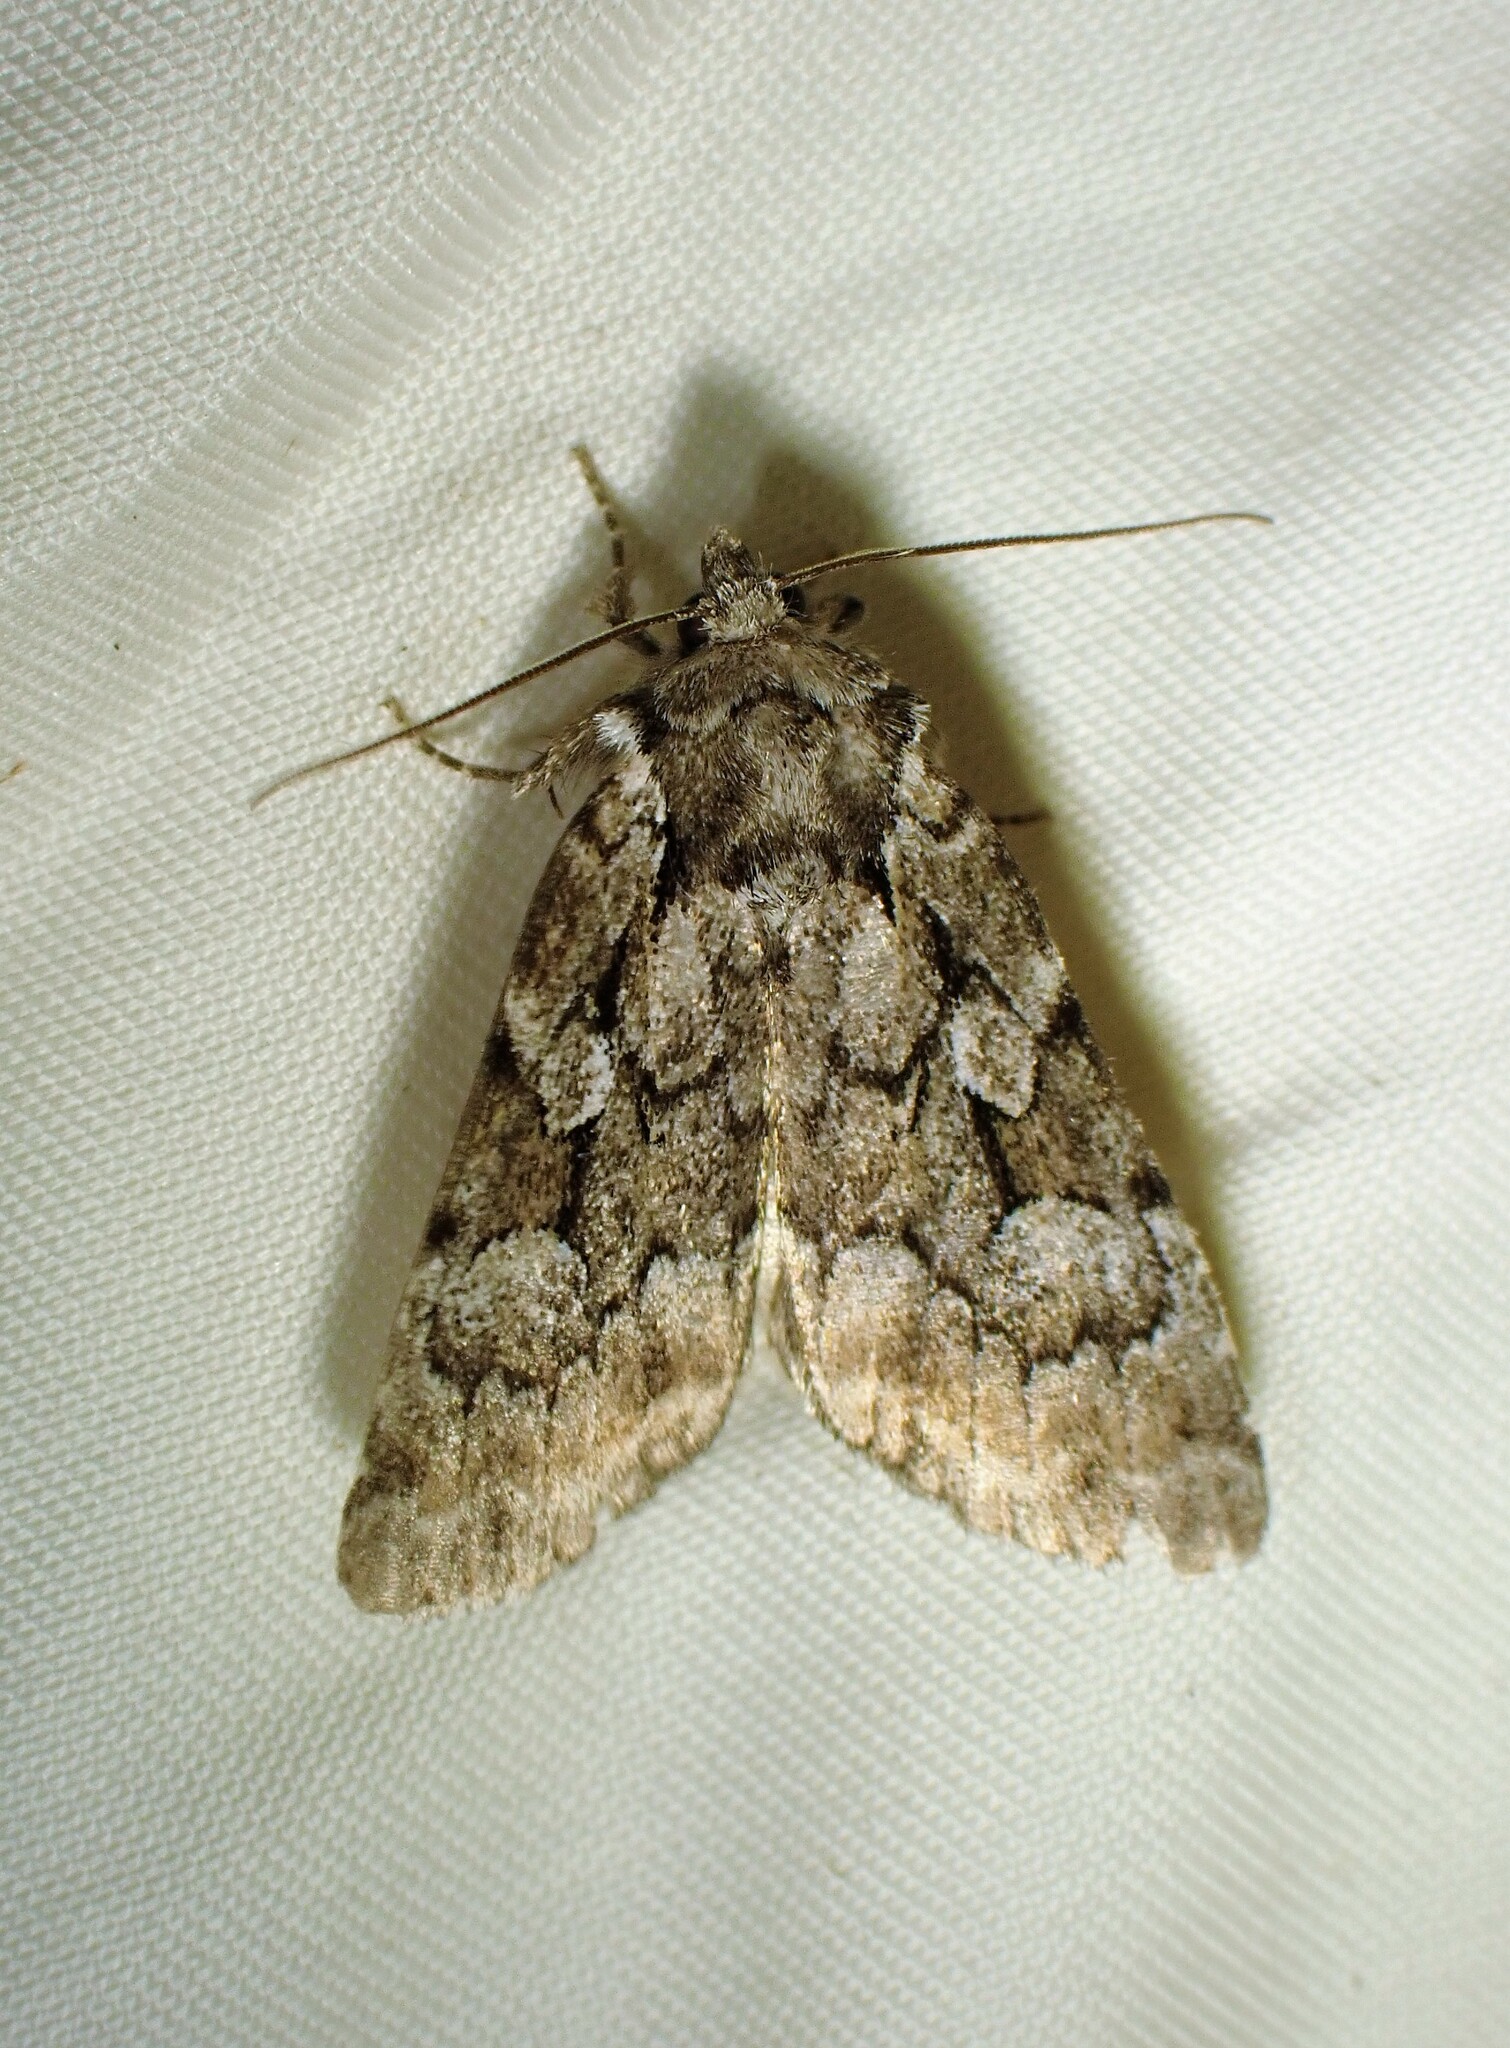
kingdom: Animalia
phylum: Arthropoda
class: Insecta
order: Lepidoptera
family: Noctuidae
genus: Aplectoides
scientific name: Aplectoides condita
